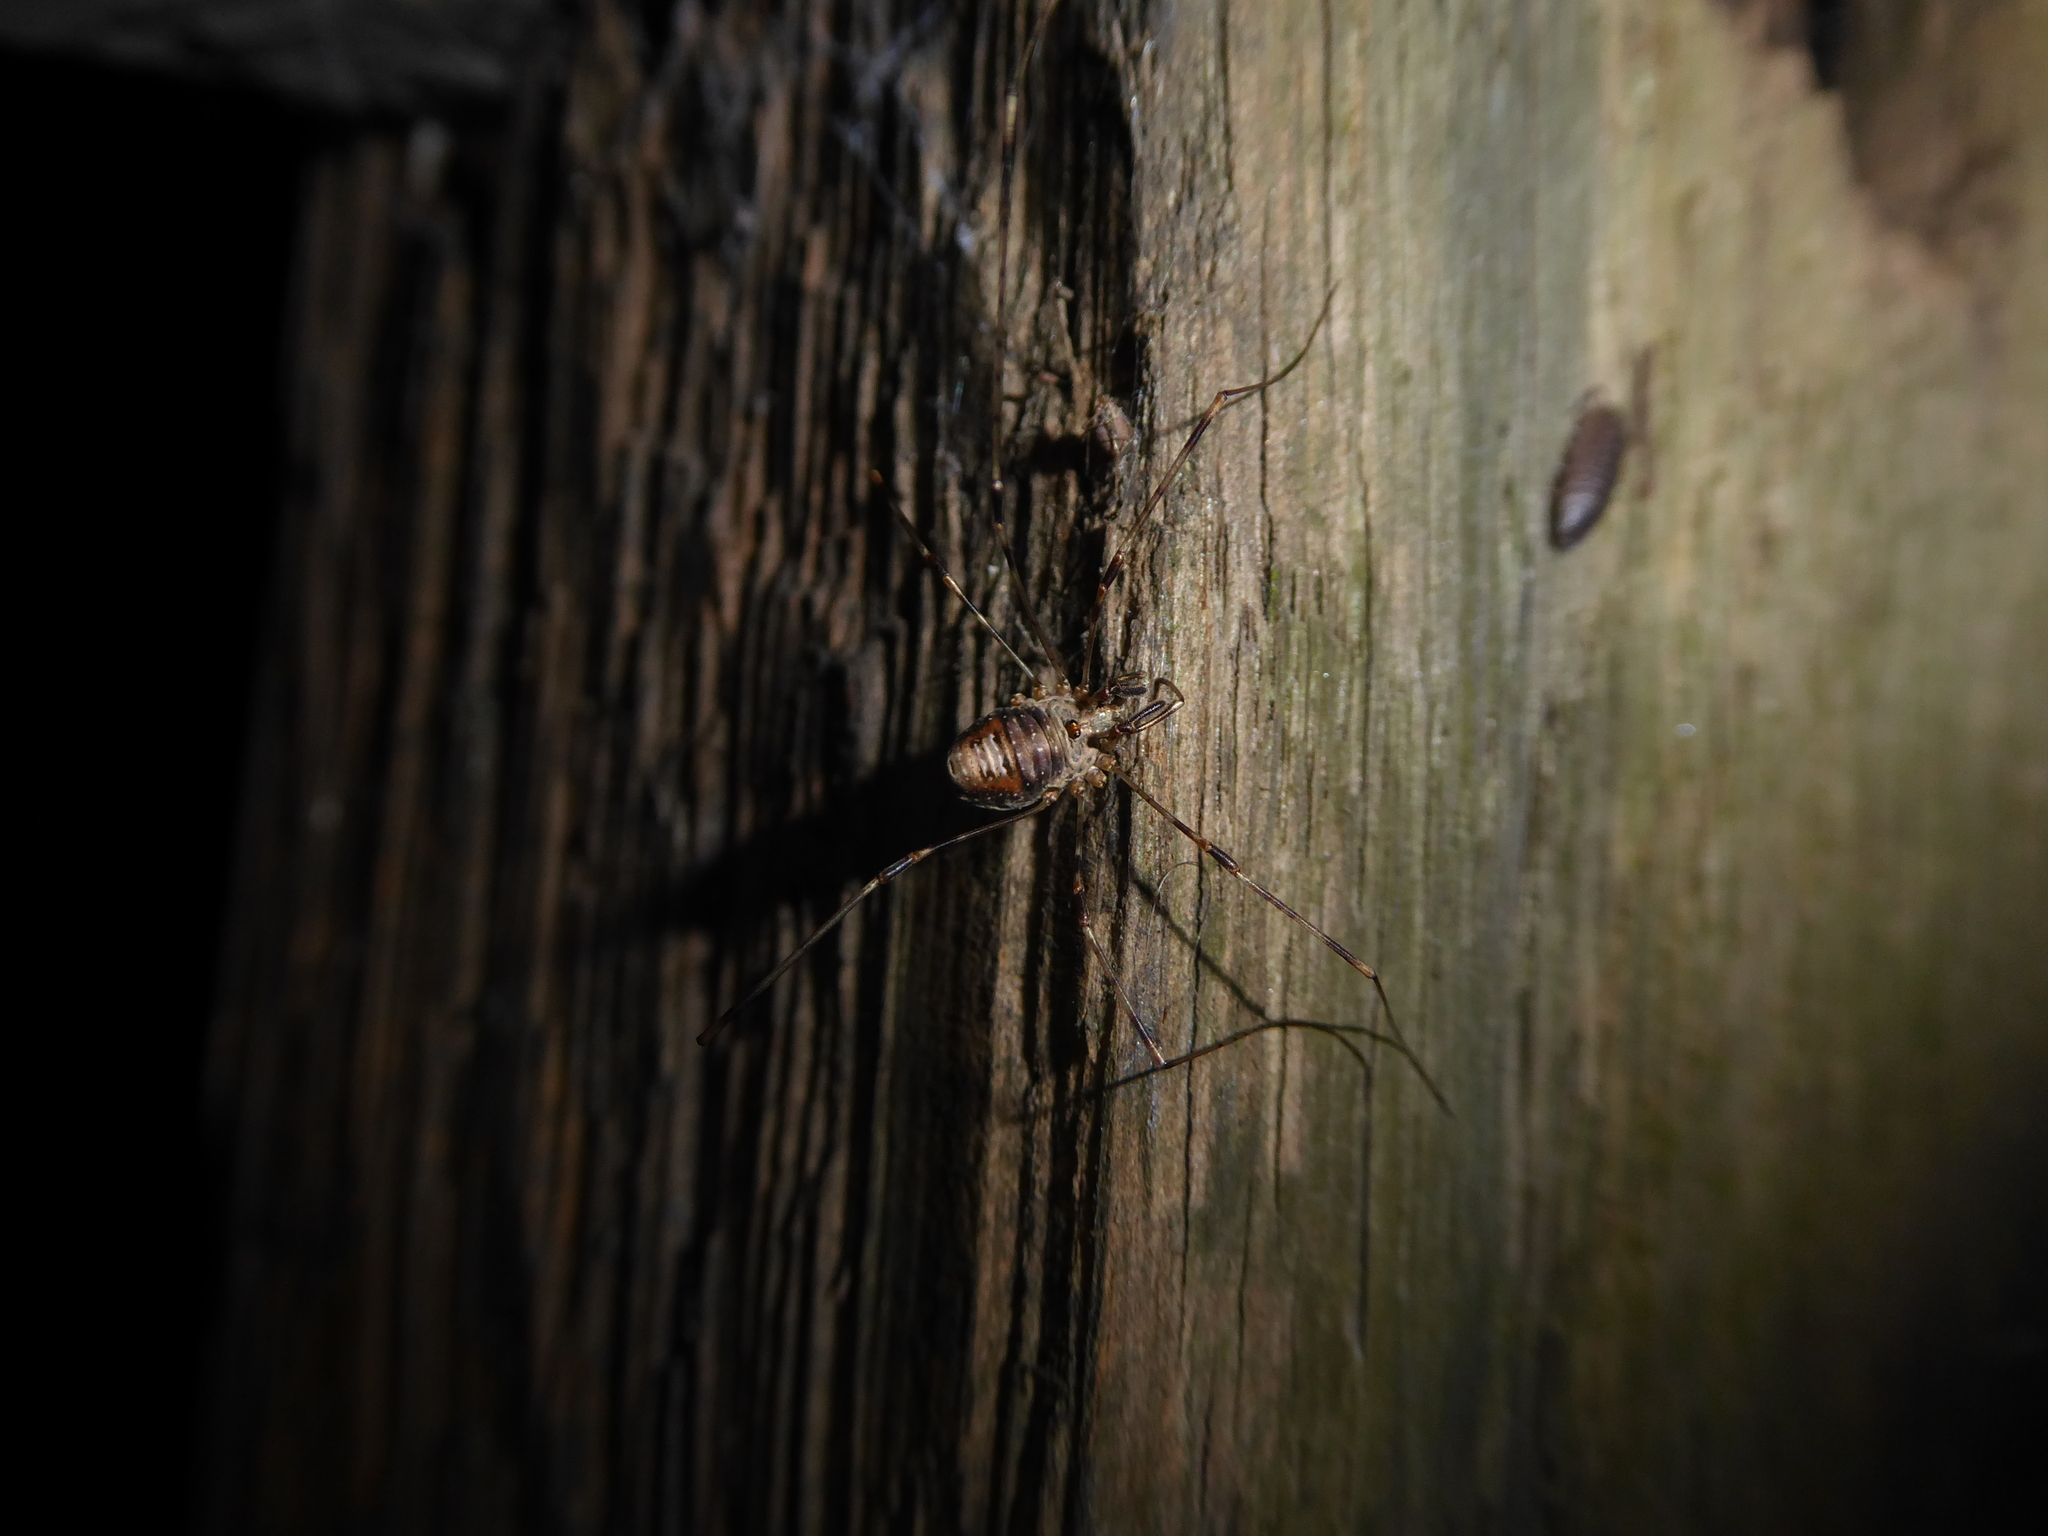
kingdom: Animalia
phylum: Arthropoda
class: Arachnida
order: Opiliones
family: Phalangiidae
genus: Dicranopalpus
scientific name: Dicranopalpus
